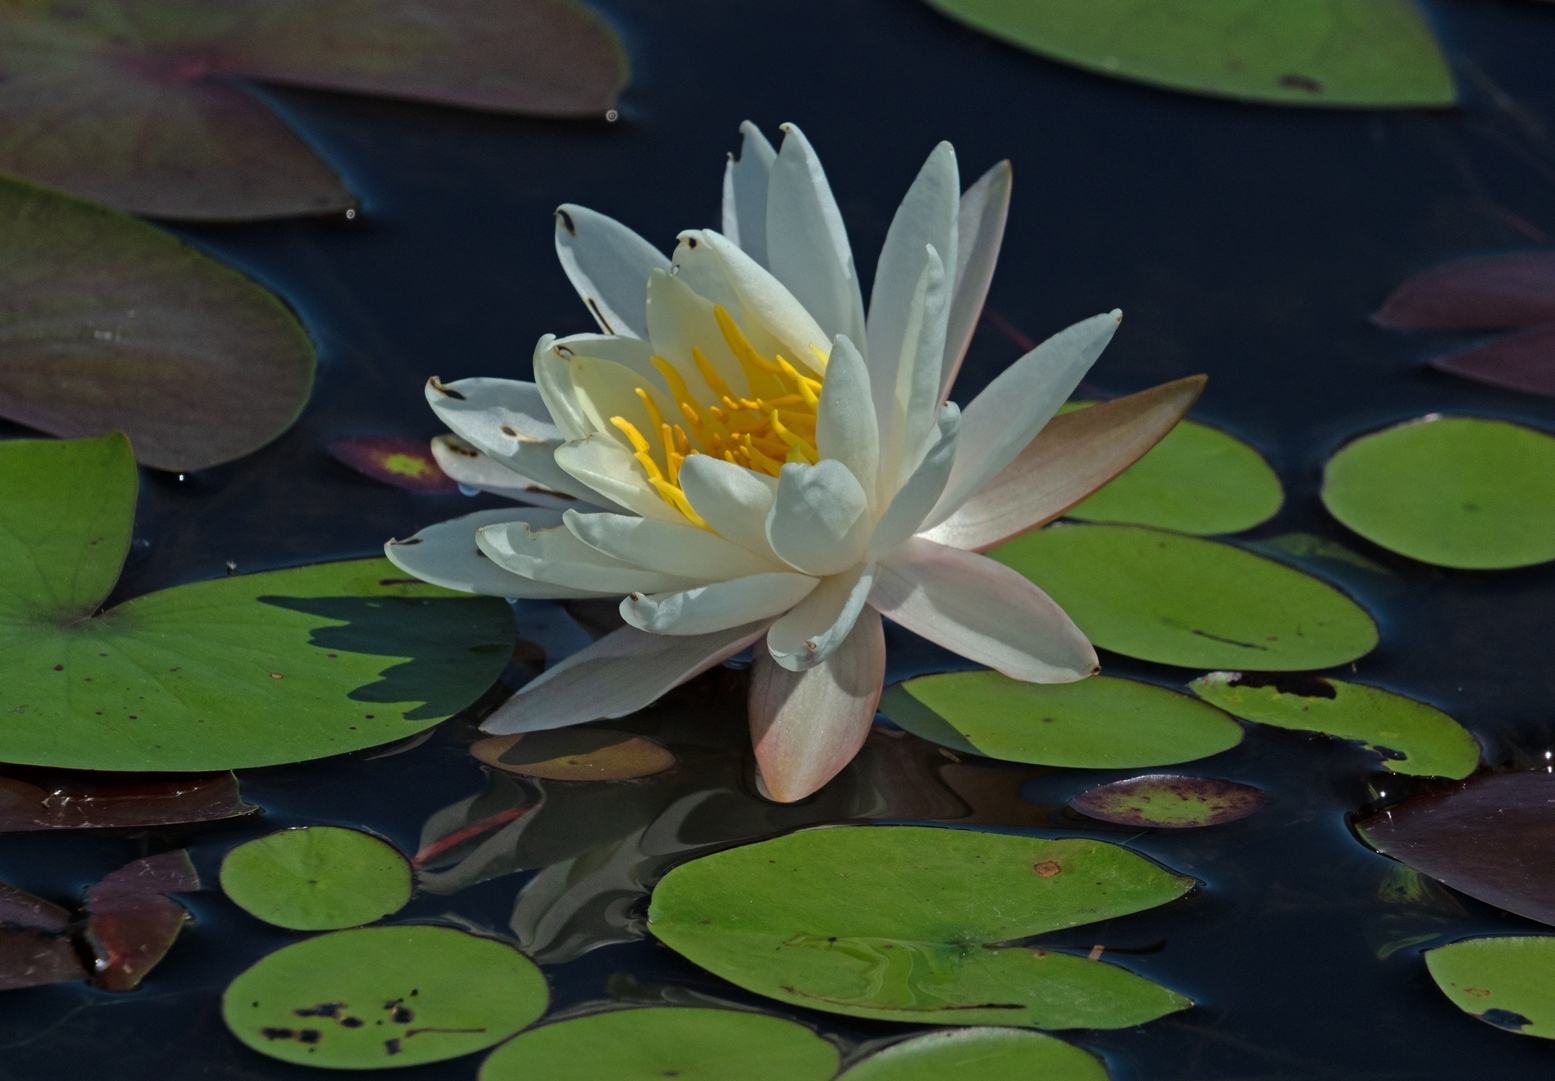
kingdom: Plantae
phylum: Tracheophyta
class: Magnoliopsida
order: Nymphaeales
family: Nymphaeaceae
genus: Nymphaea
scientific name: Nymphaea odorata
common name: Fragrant water-lily
